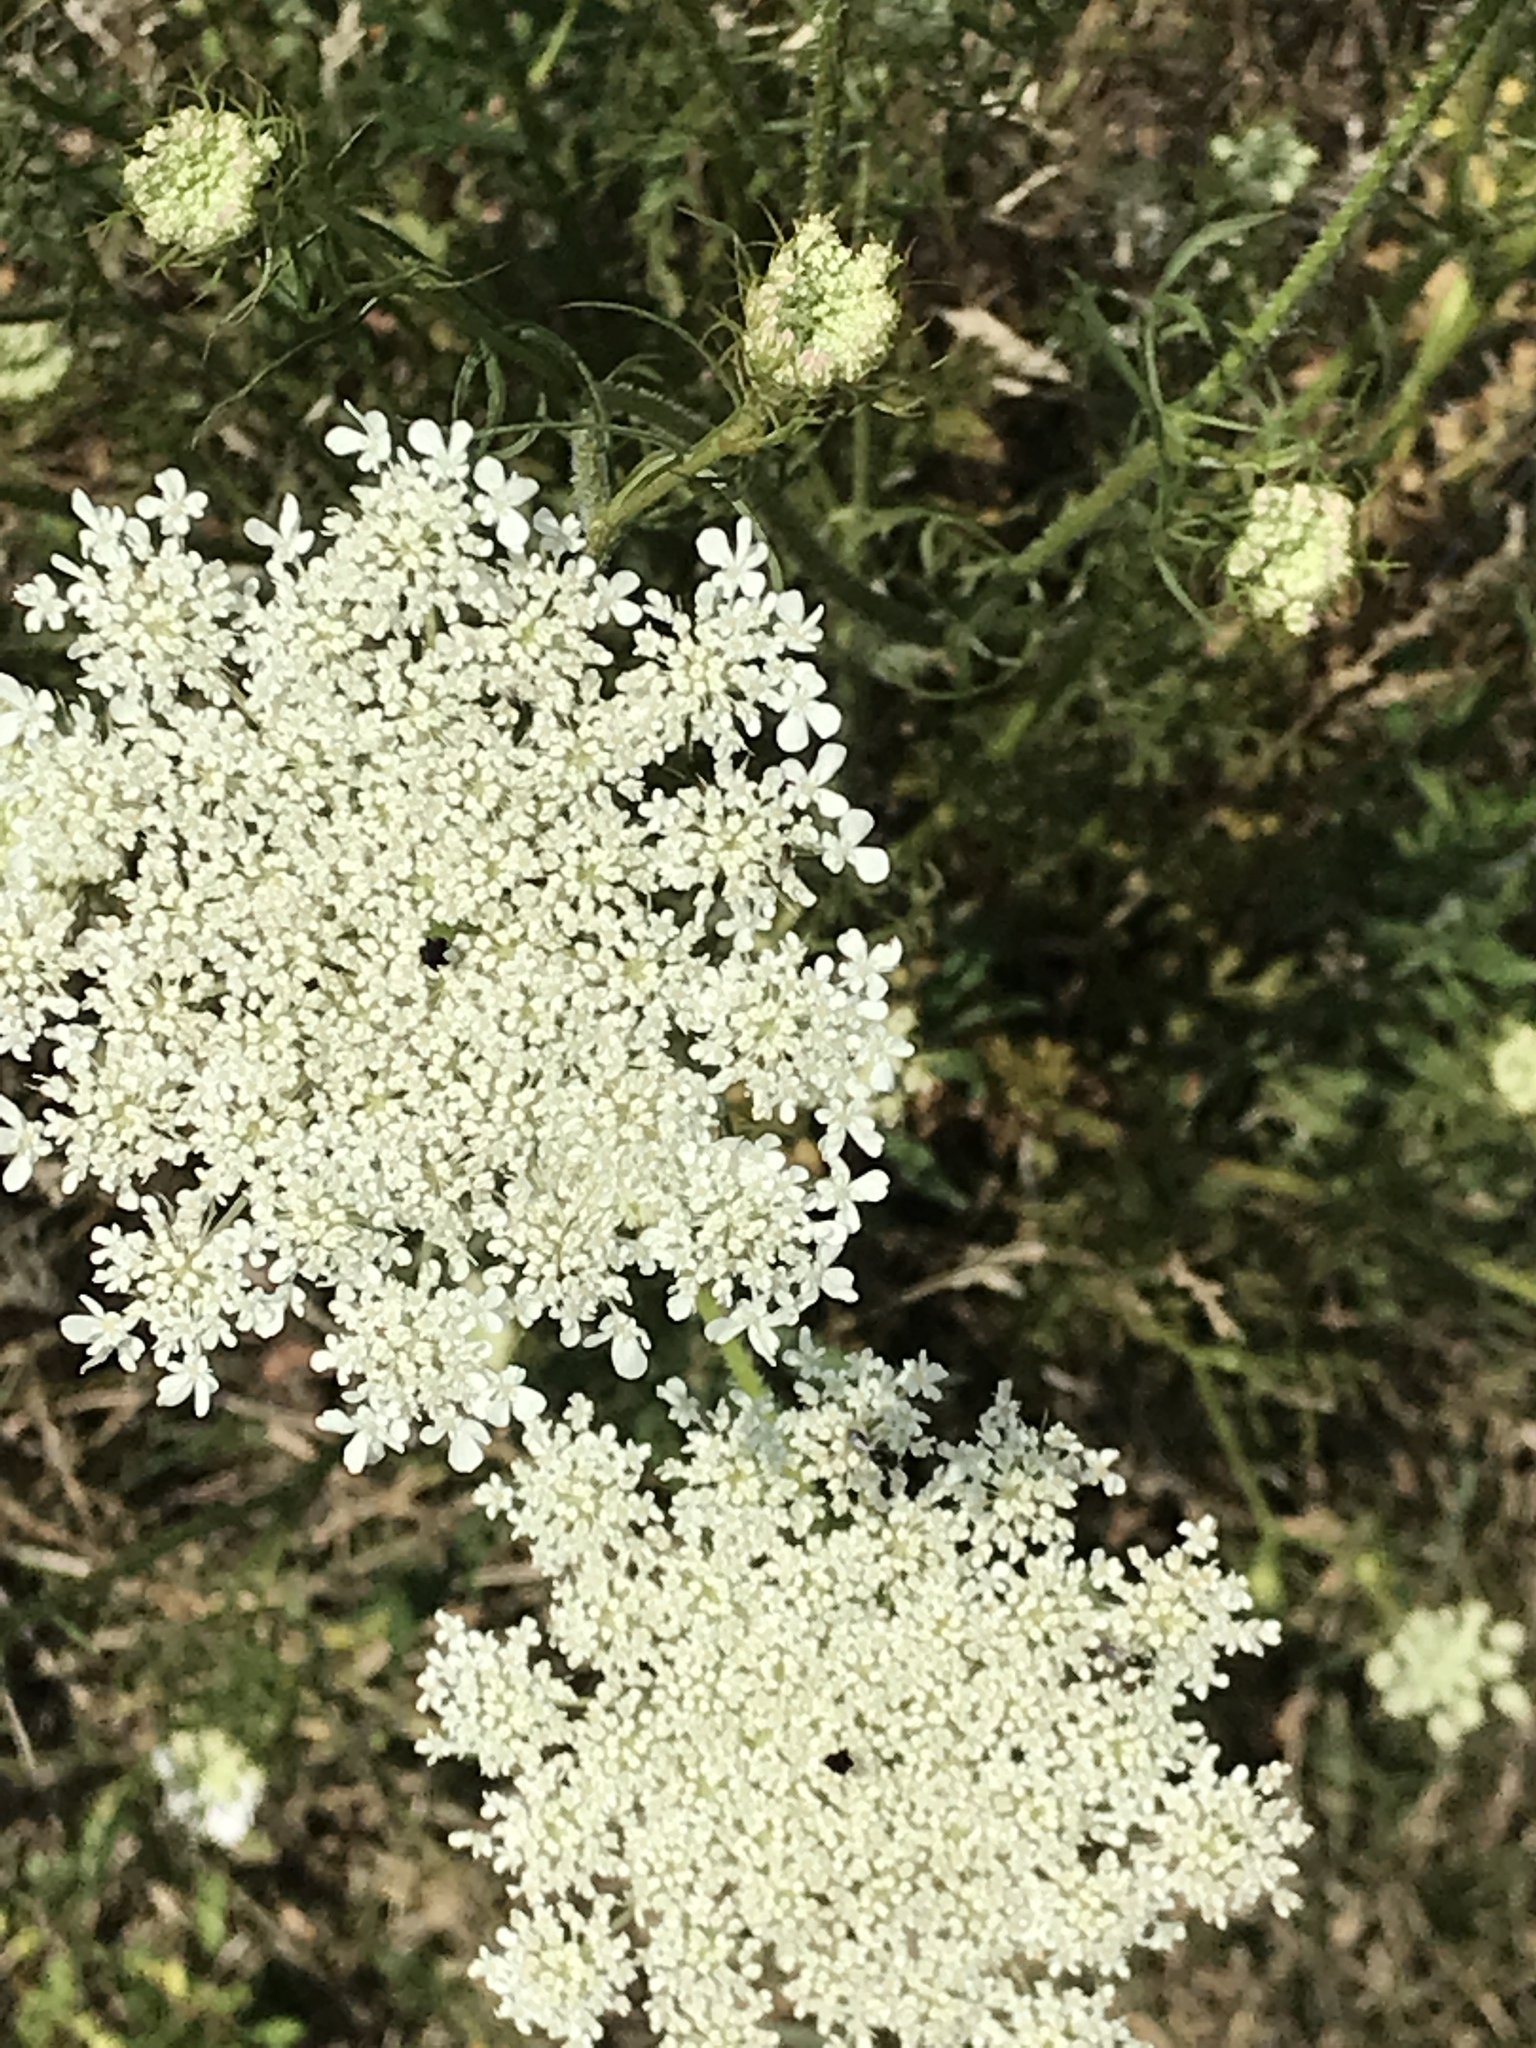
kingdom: Plantae
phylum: Tracheophyta
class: Magnoliopsida
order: Apiales
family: Apiaceae
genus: Daucus
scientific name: Daucus carota
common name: Wild carrot
